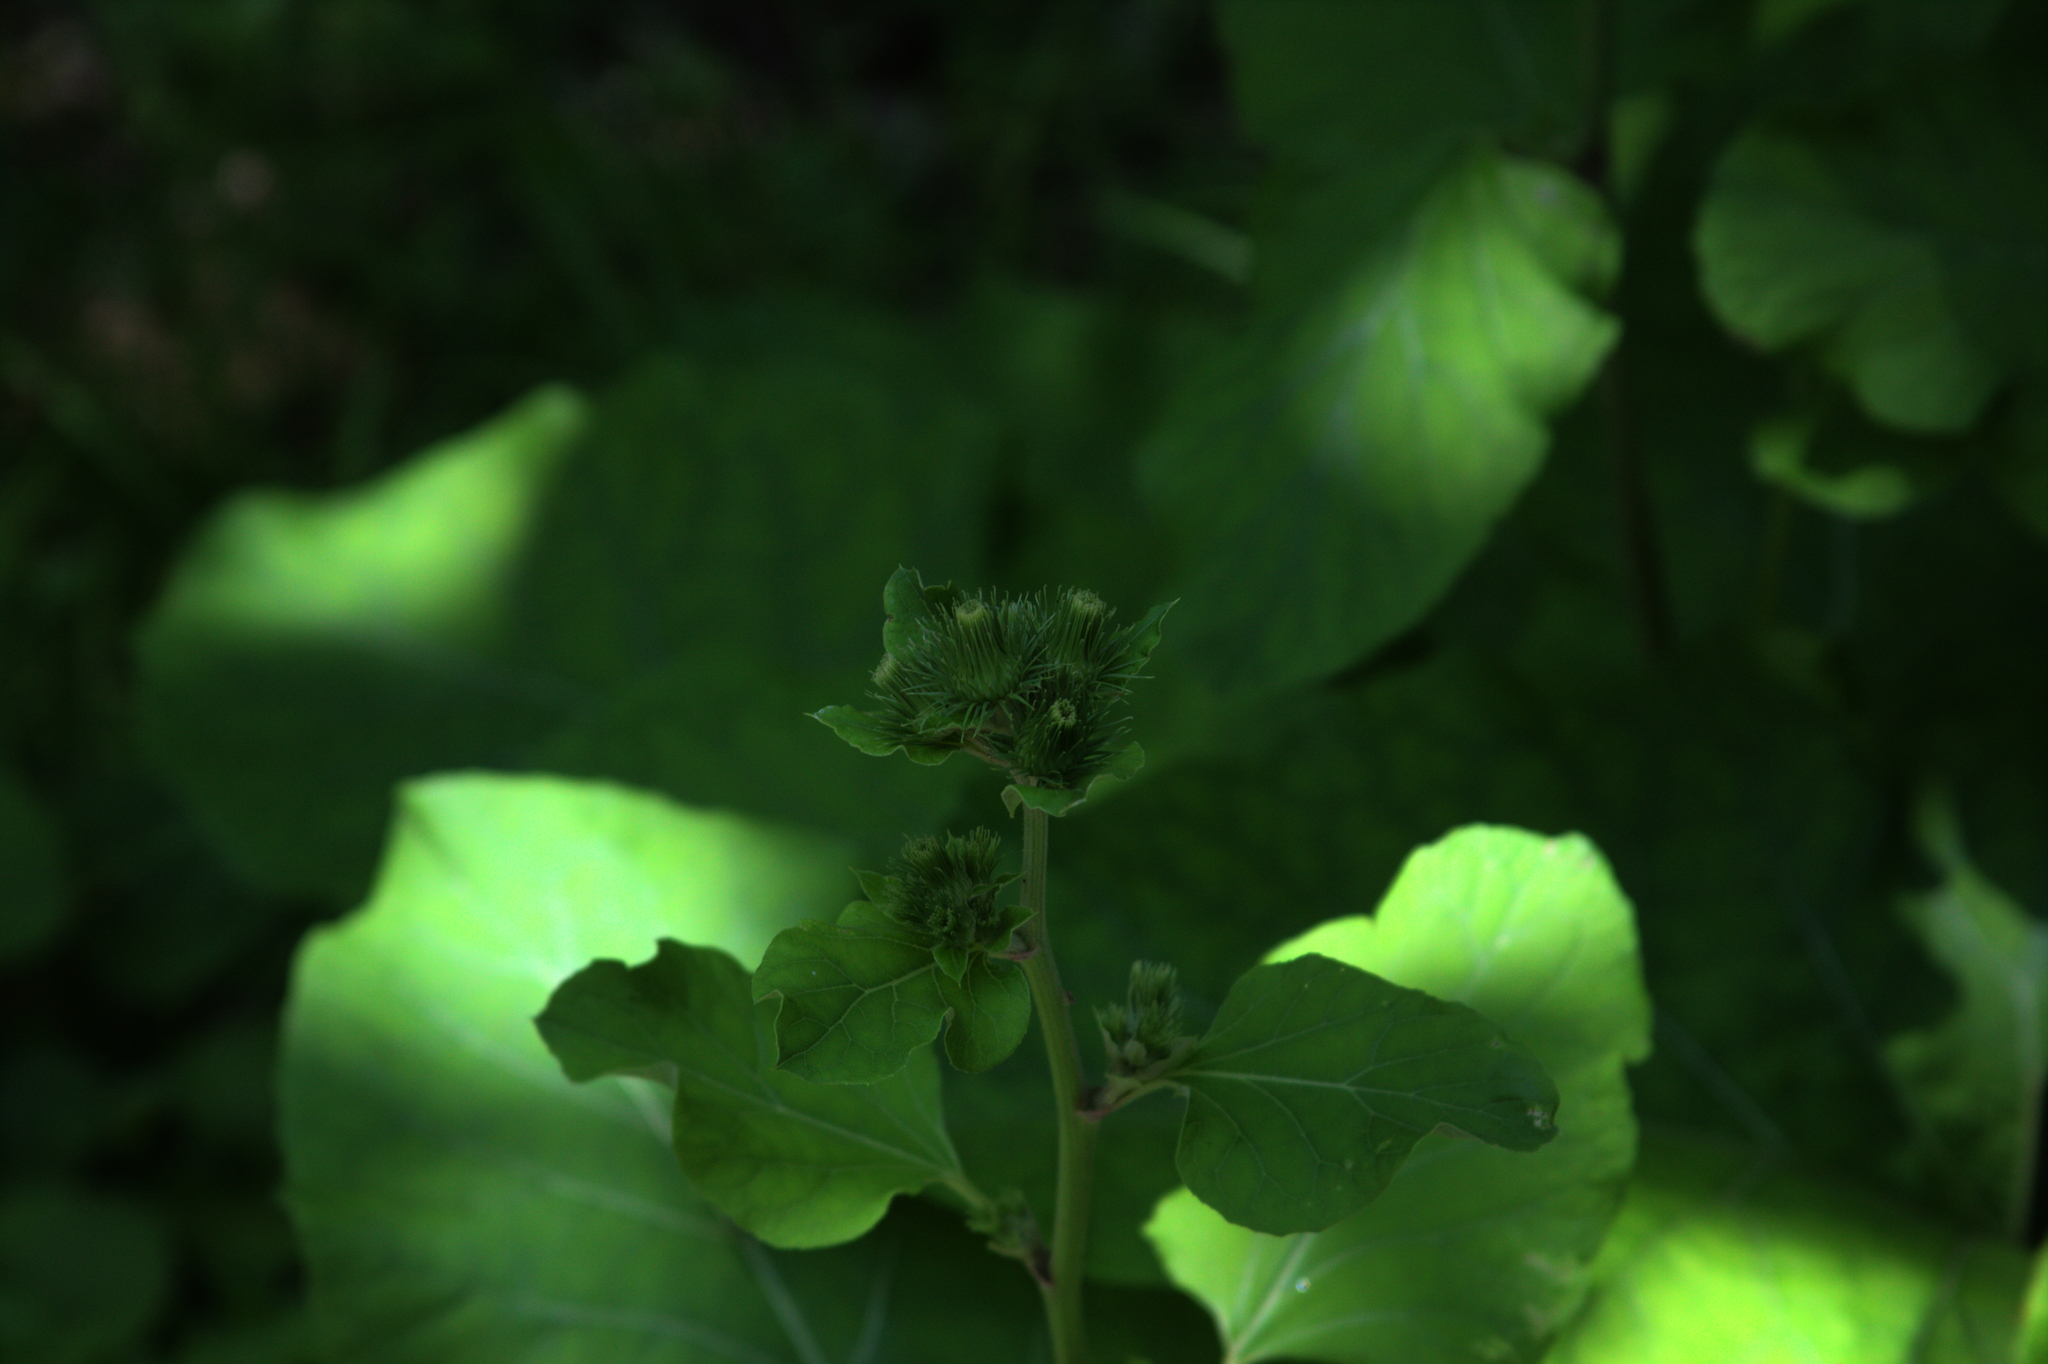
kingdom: Plantae
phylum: Tracheophyta
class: Magnoliopsida
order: Asterales
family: Asteraceae
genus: Arctium
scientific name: Arctium
